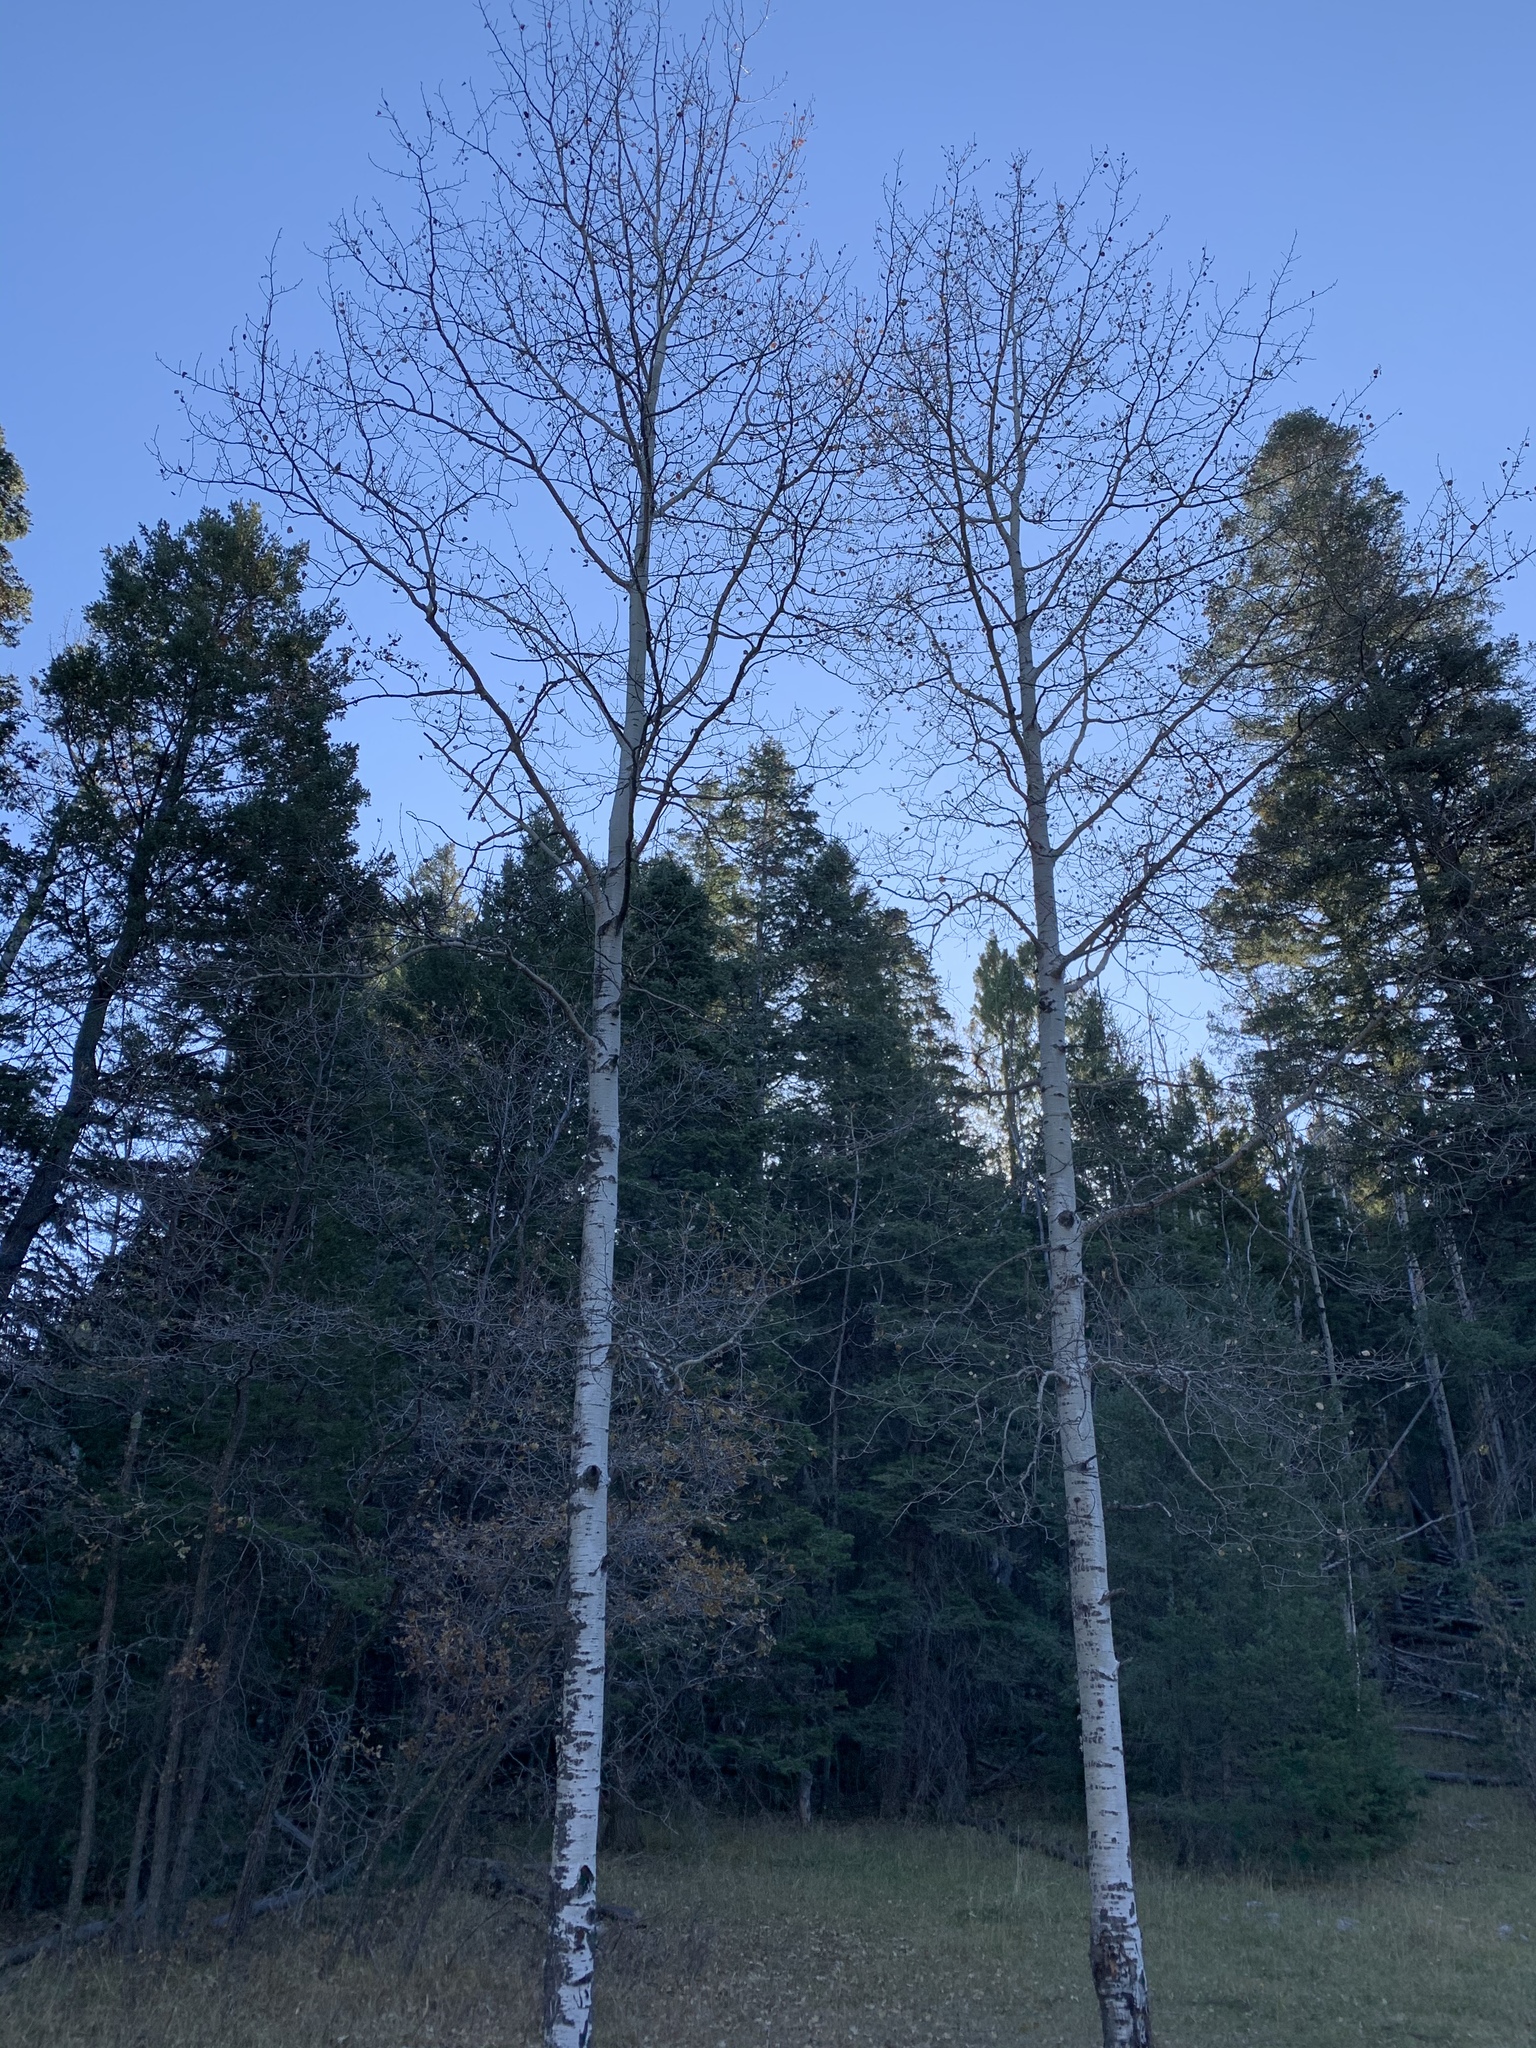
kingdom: Plantae
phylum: Tracheophyta
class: Magnoliopsida
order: Malpighiales
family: Salicaceae
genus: Populus
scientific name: Populus tremuloides
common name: Quaking aspen
